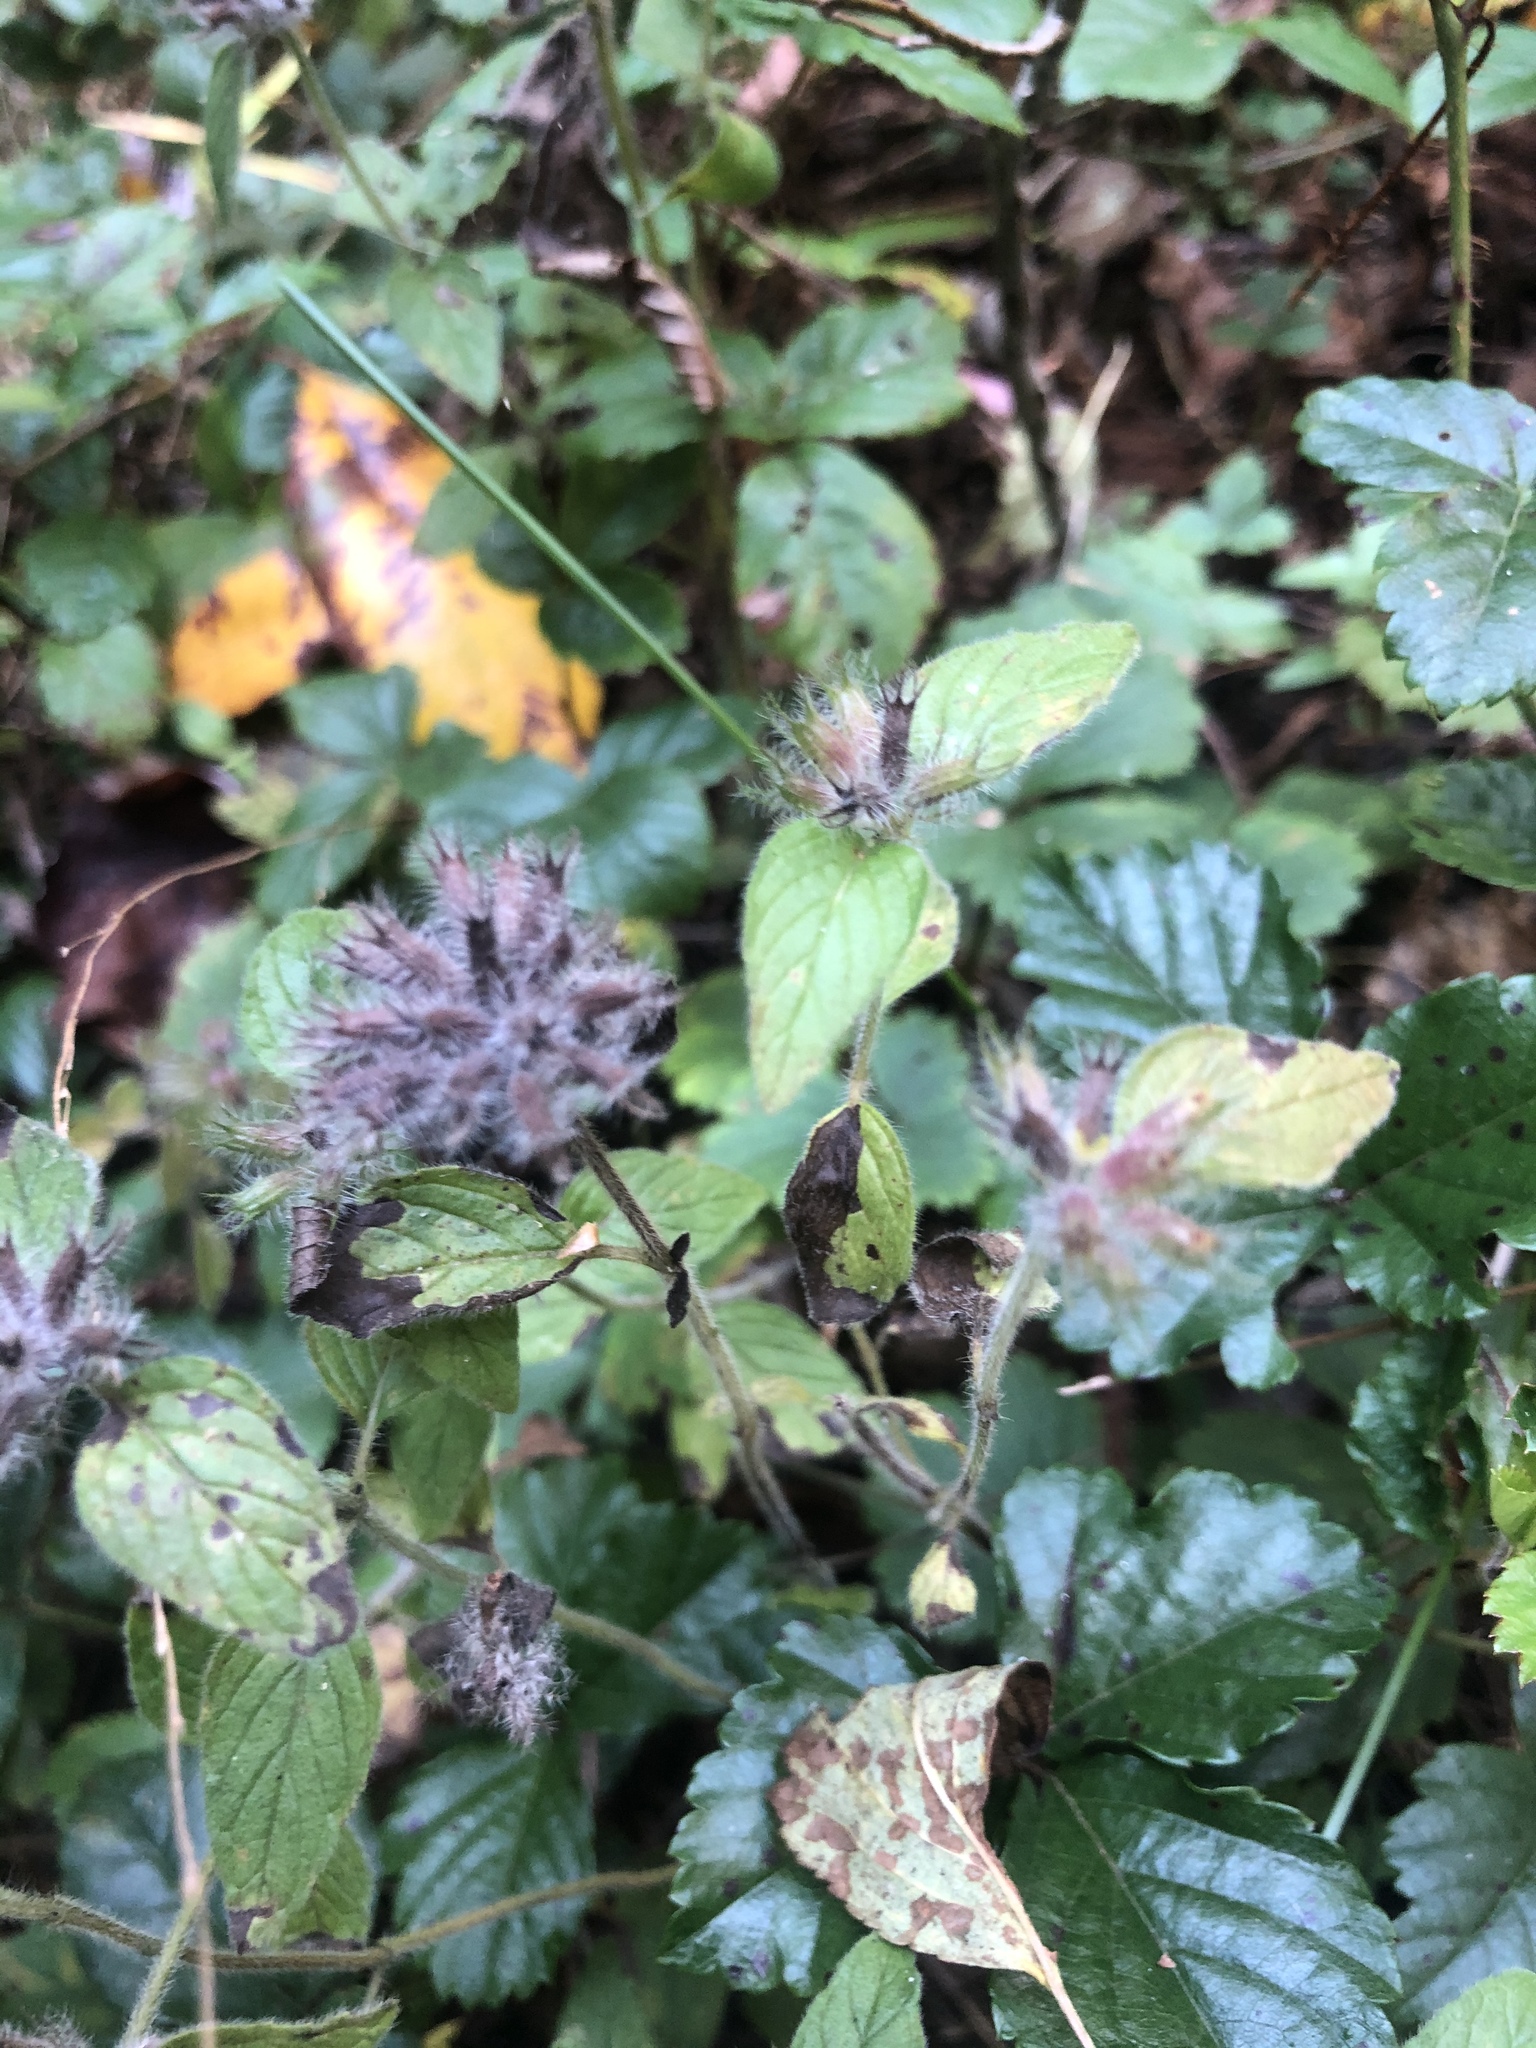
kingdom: Plantae
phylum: Tracheophyta
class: Magnoliopsida
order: Lamiales
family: Lamiaceae
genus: Clinopodium
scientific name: Clinopodium vulgare
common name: Wild basil
